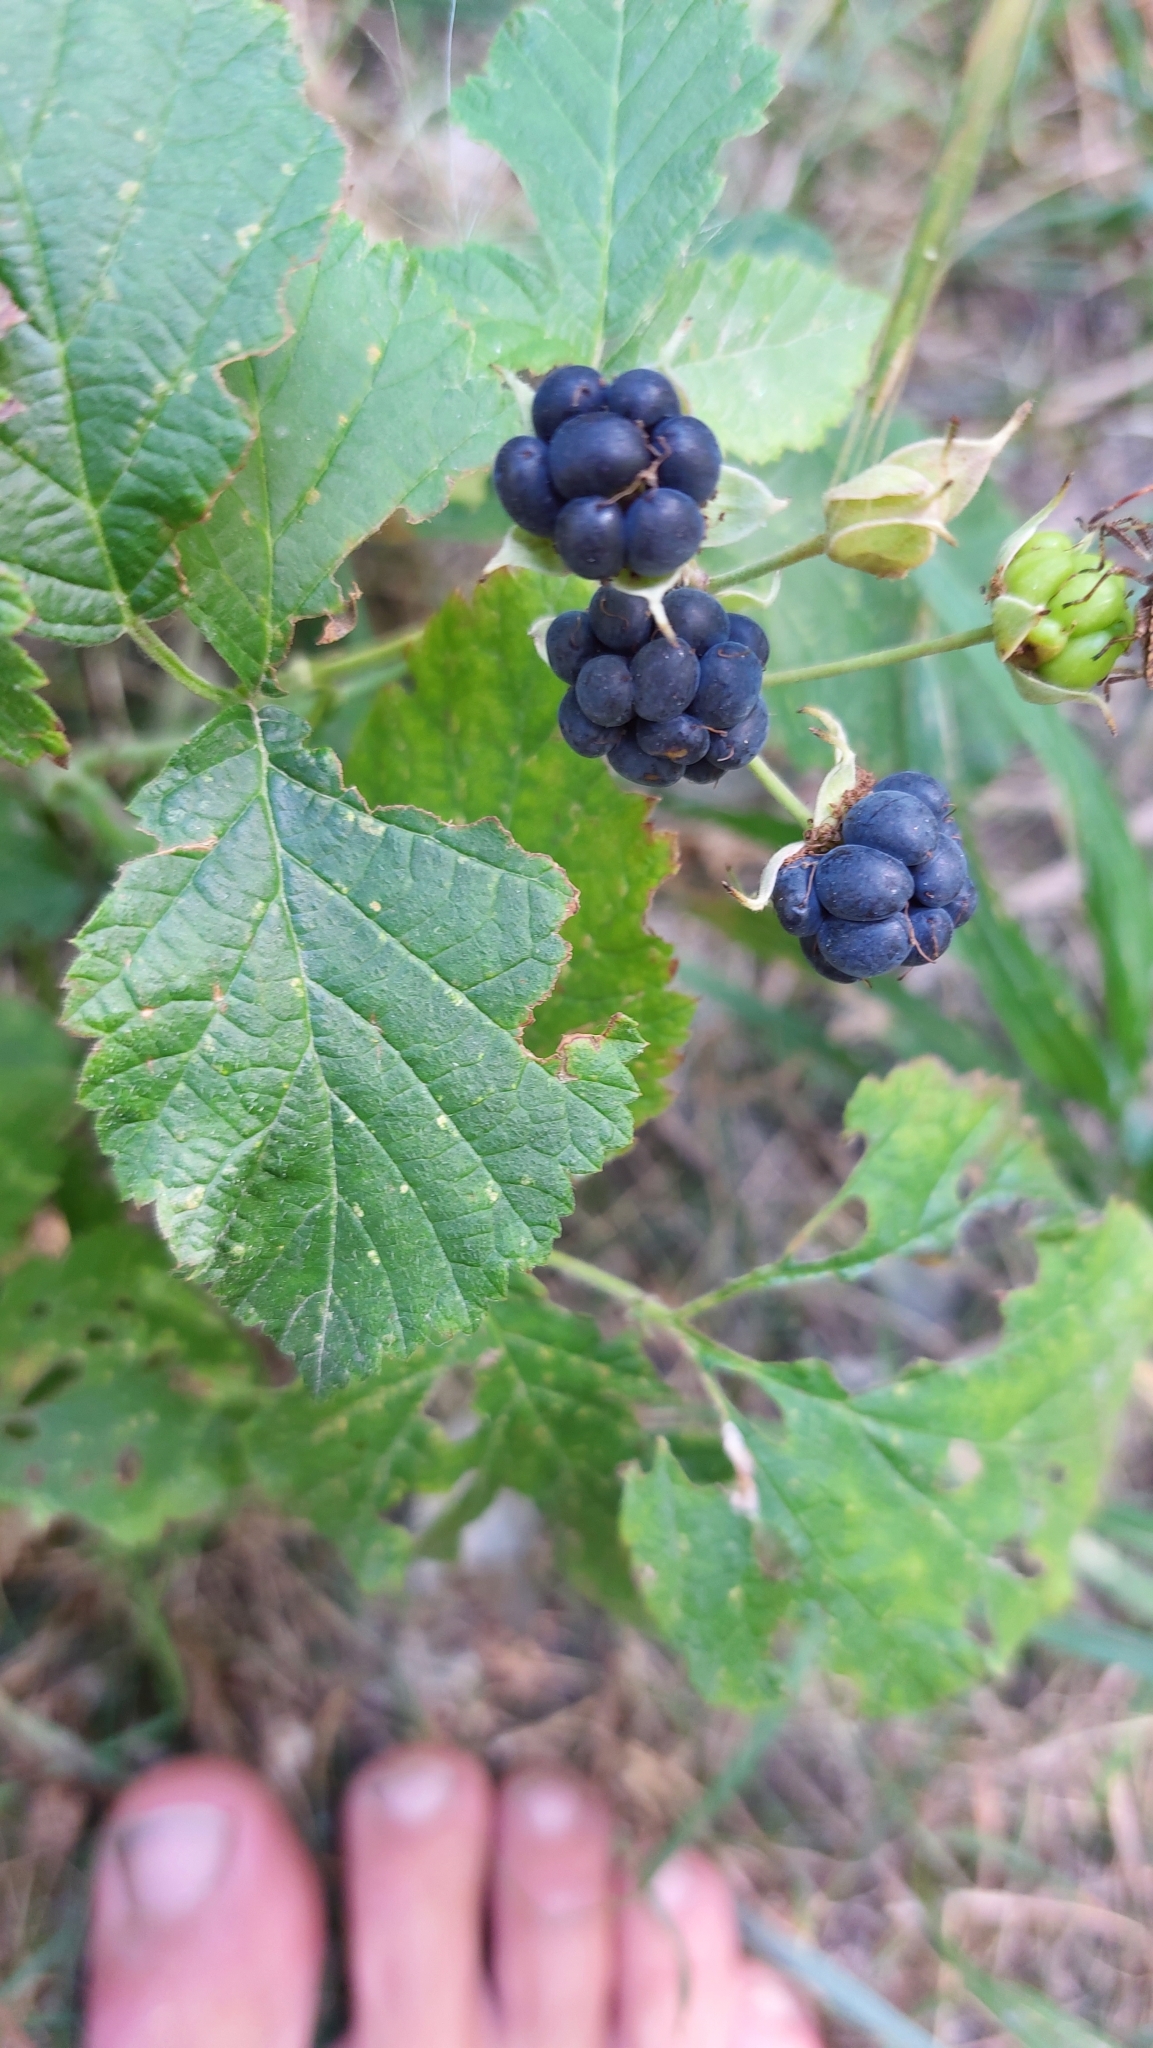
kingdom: Plantae
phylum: Tracheophyta
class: Magnoliopsida
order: Rosales
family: Rosaceae
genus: Rubus
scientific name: Rubus caesius
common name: Dewberry
